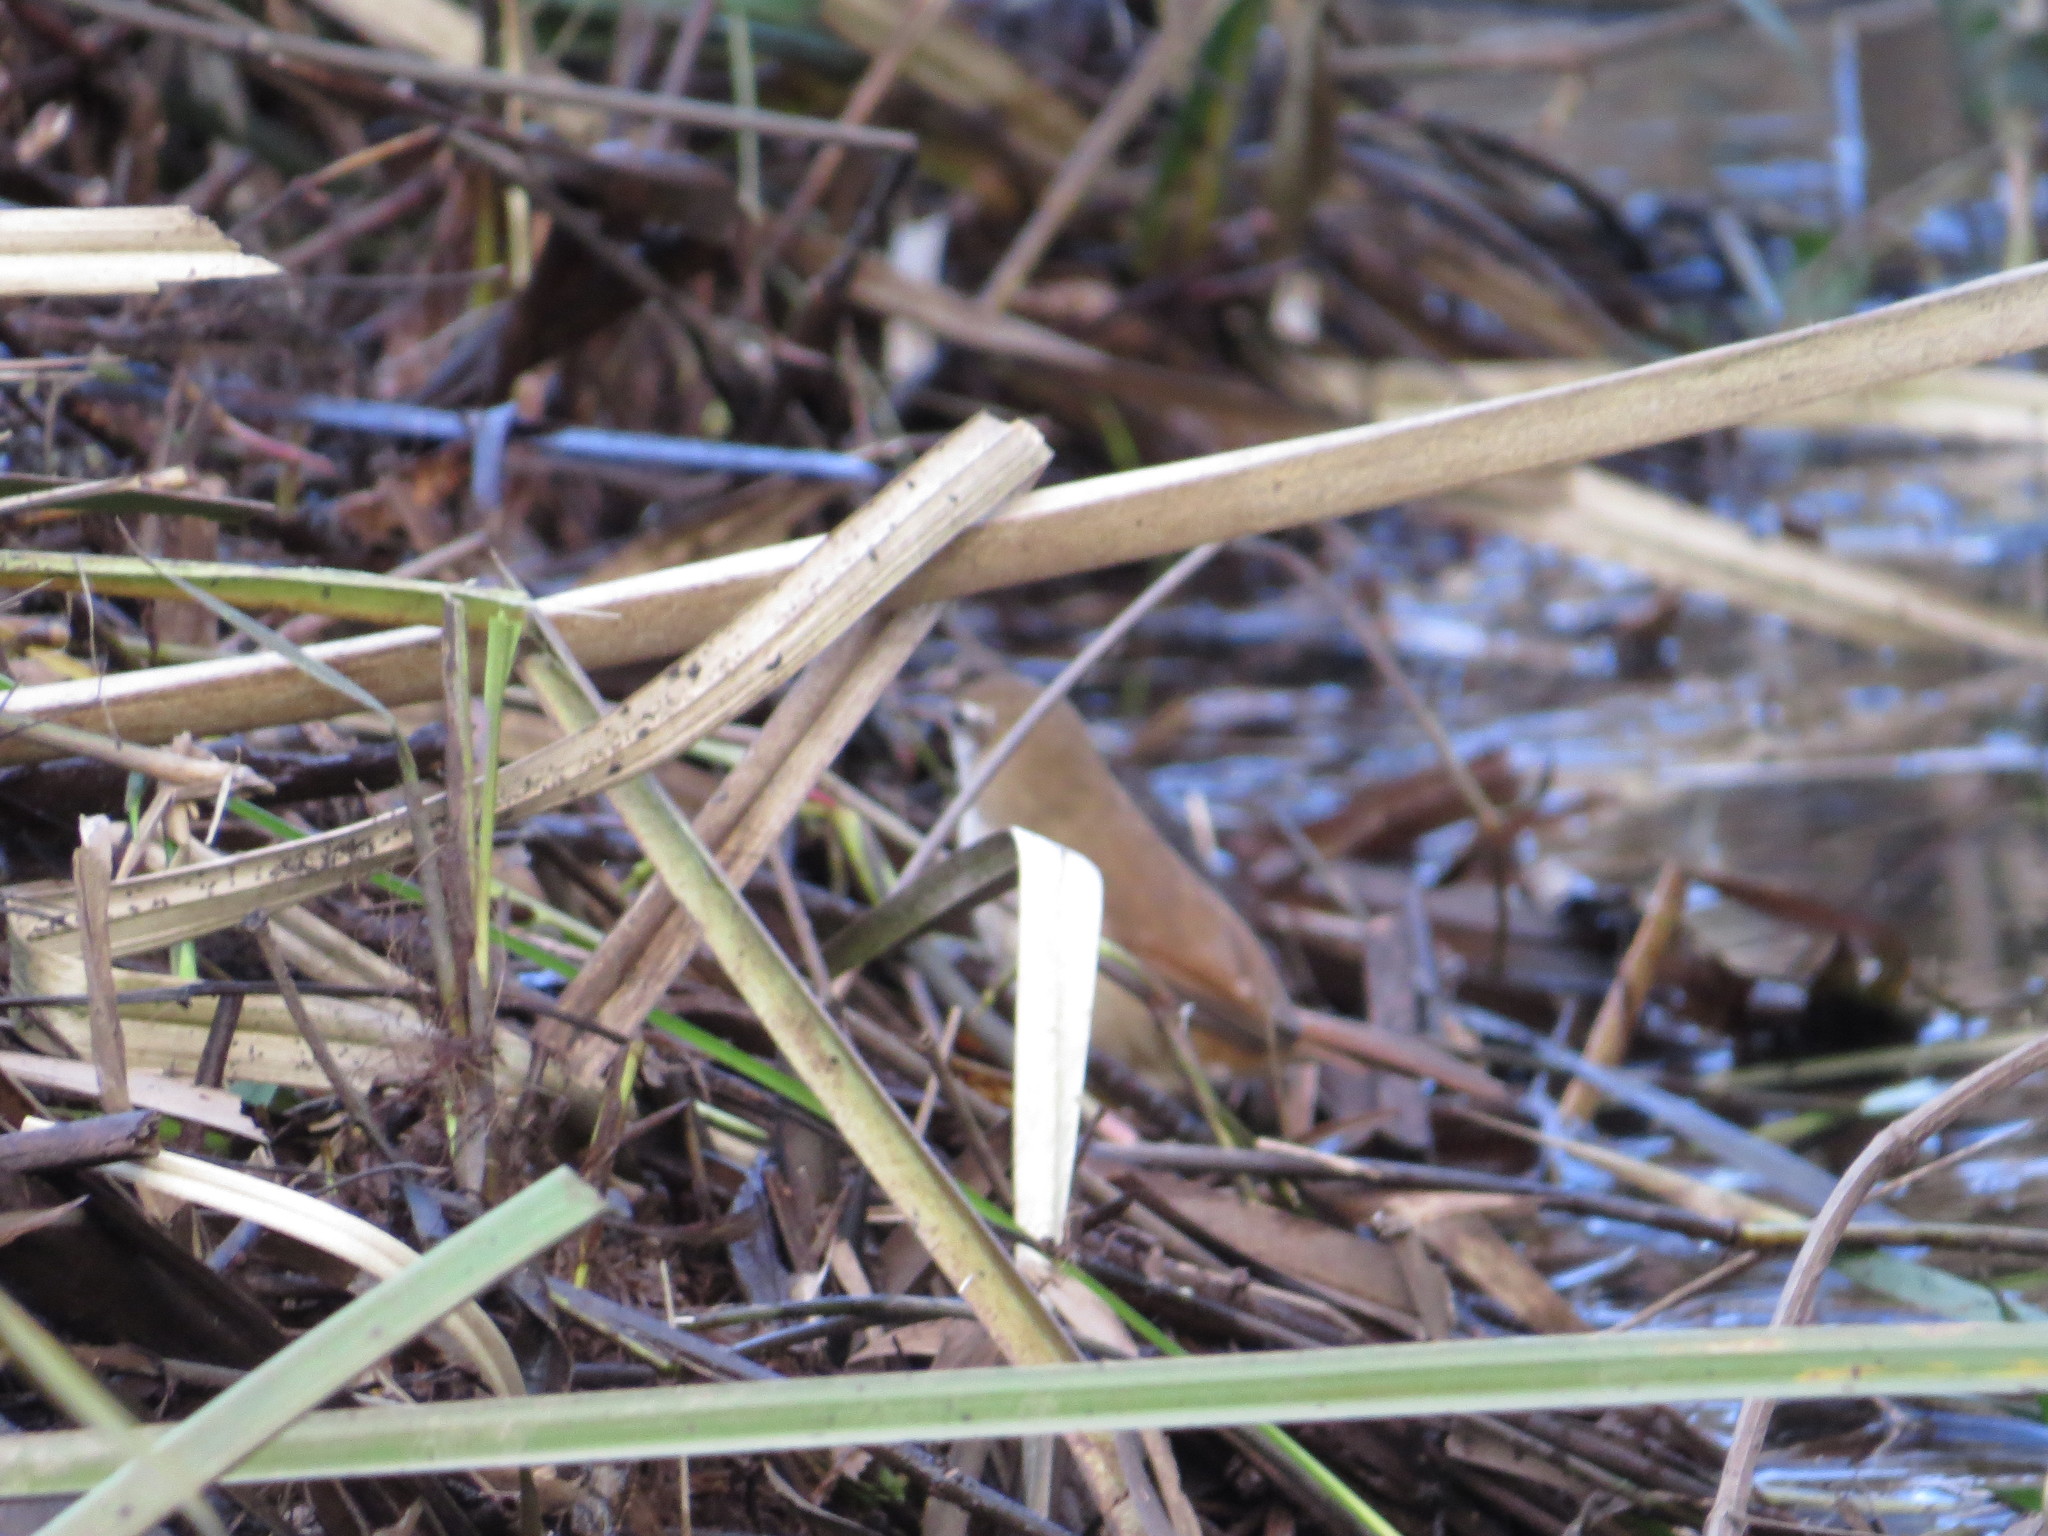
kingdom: Animalia
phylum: Chordata
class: Aves
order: Passeriformes
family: Furnariidae
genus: Limnornis
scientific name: Limnornis curvirostris
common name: Curve-billed reedhaunter
